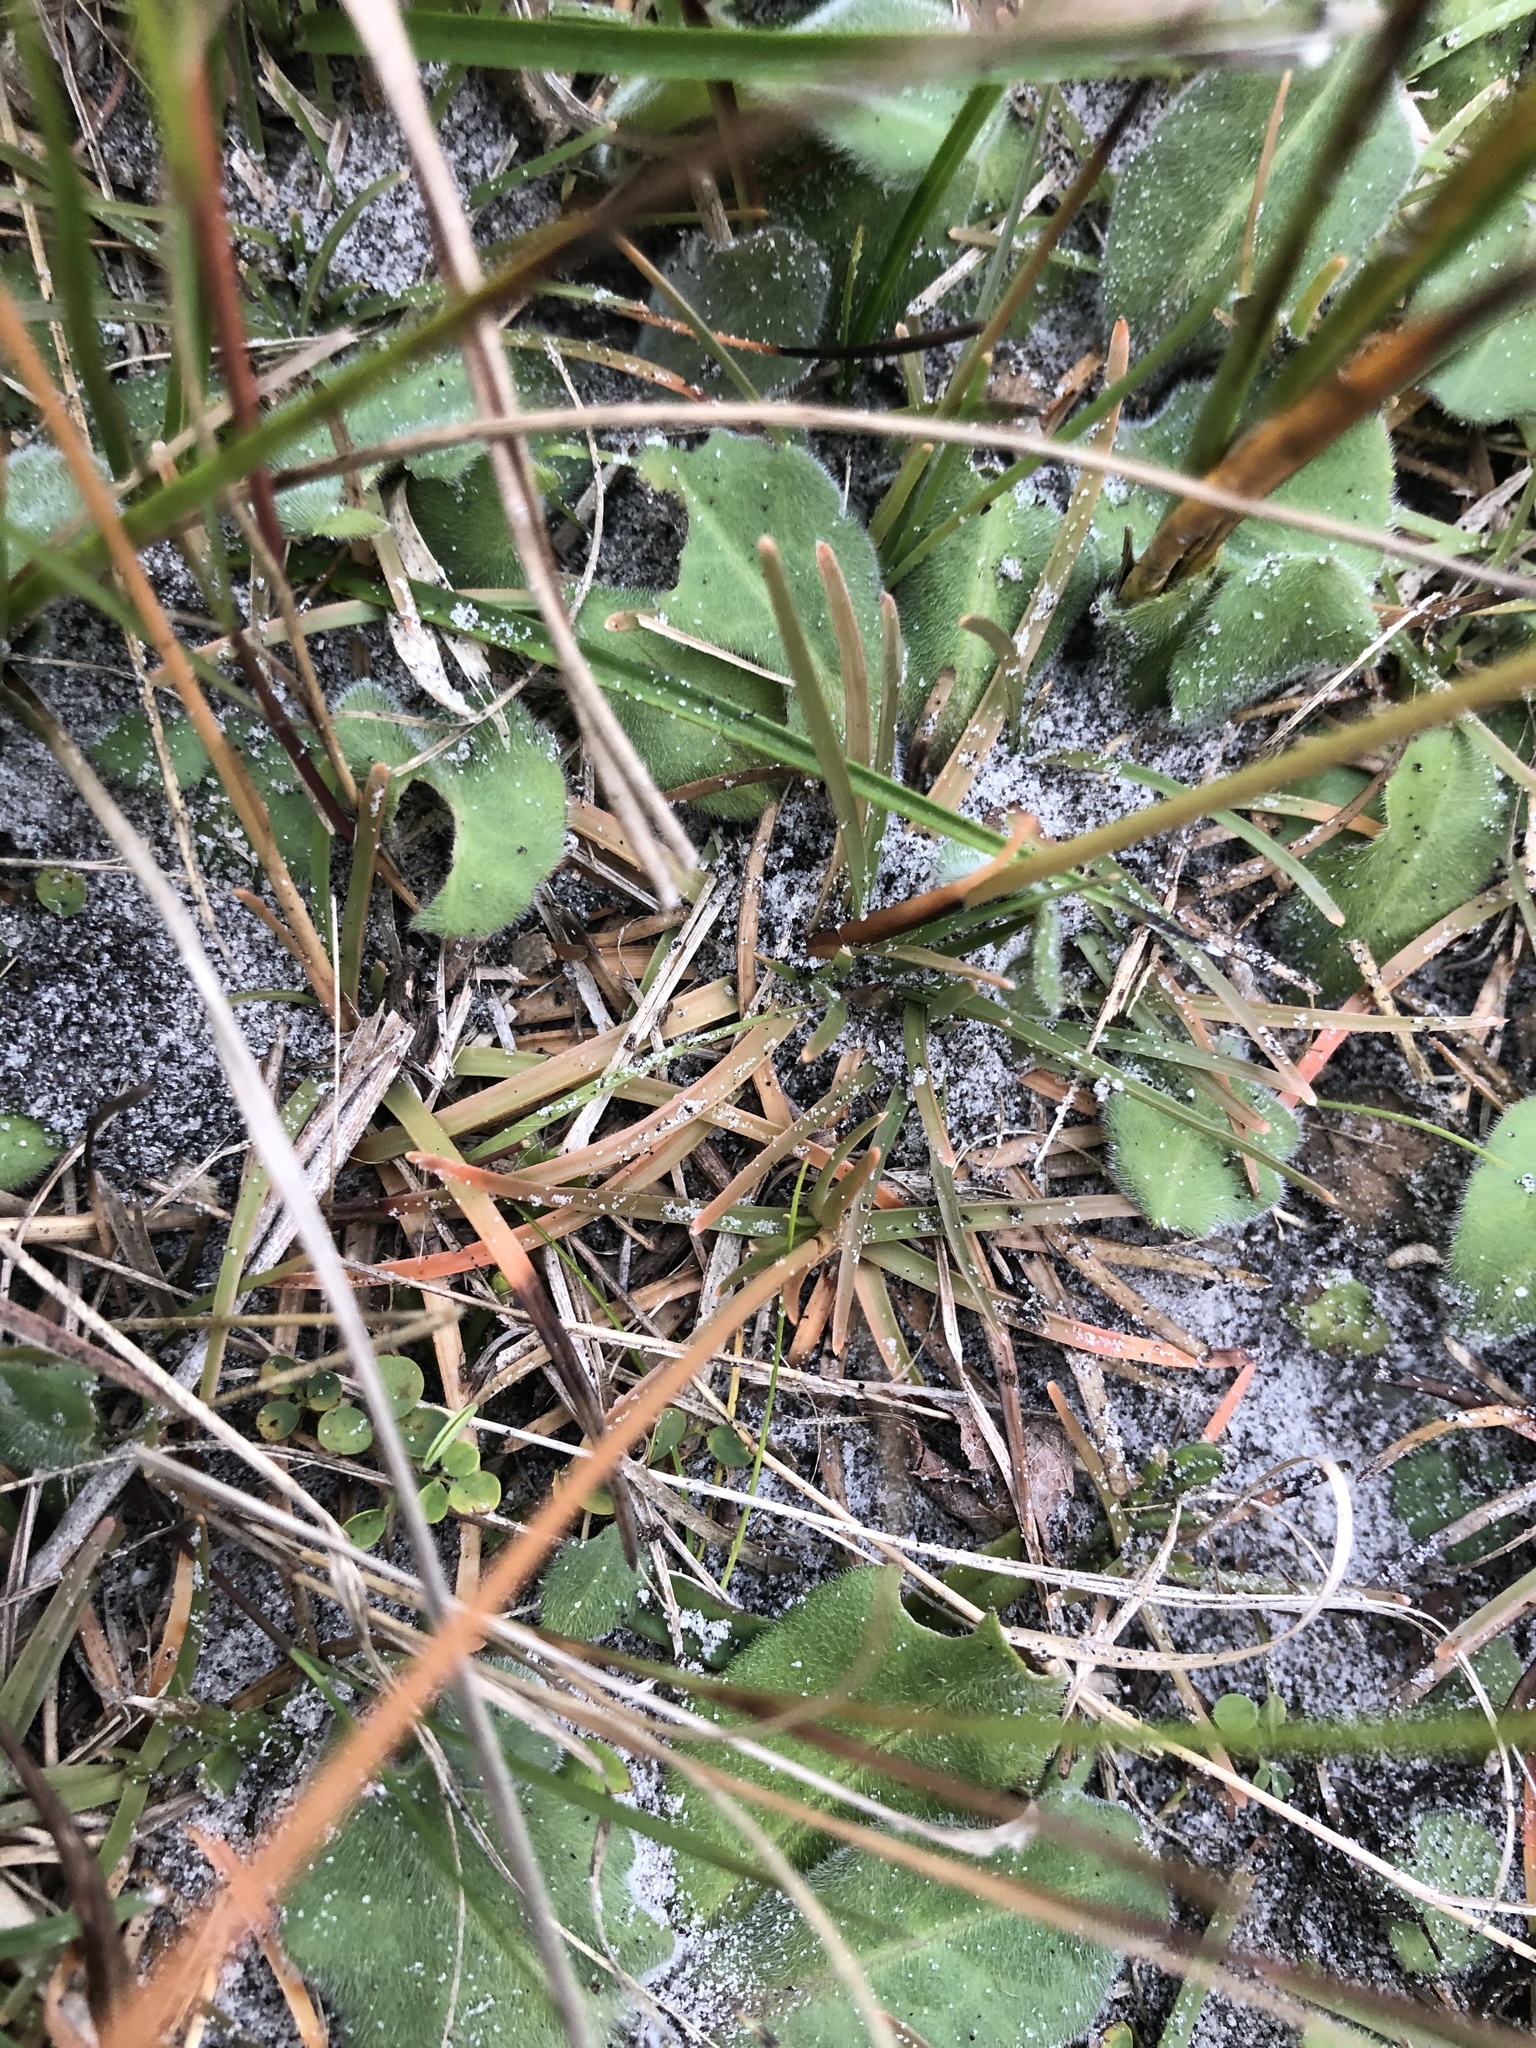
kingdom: Plantae
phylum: Tracheophyta
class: Liliopsida
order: Poales
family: Cyperaceae
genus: Fimbristylis
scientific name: Fimbristylis cymosa
